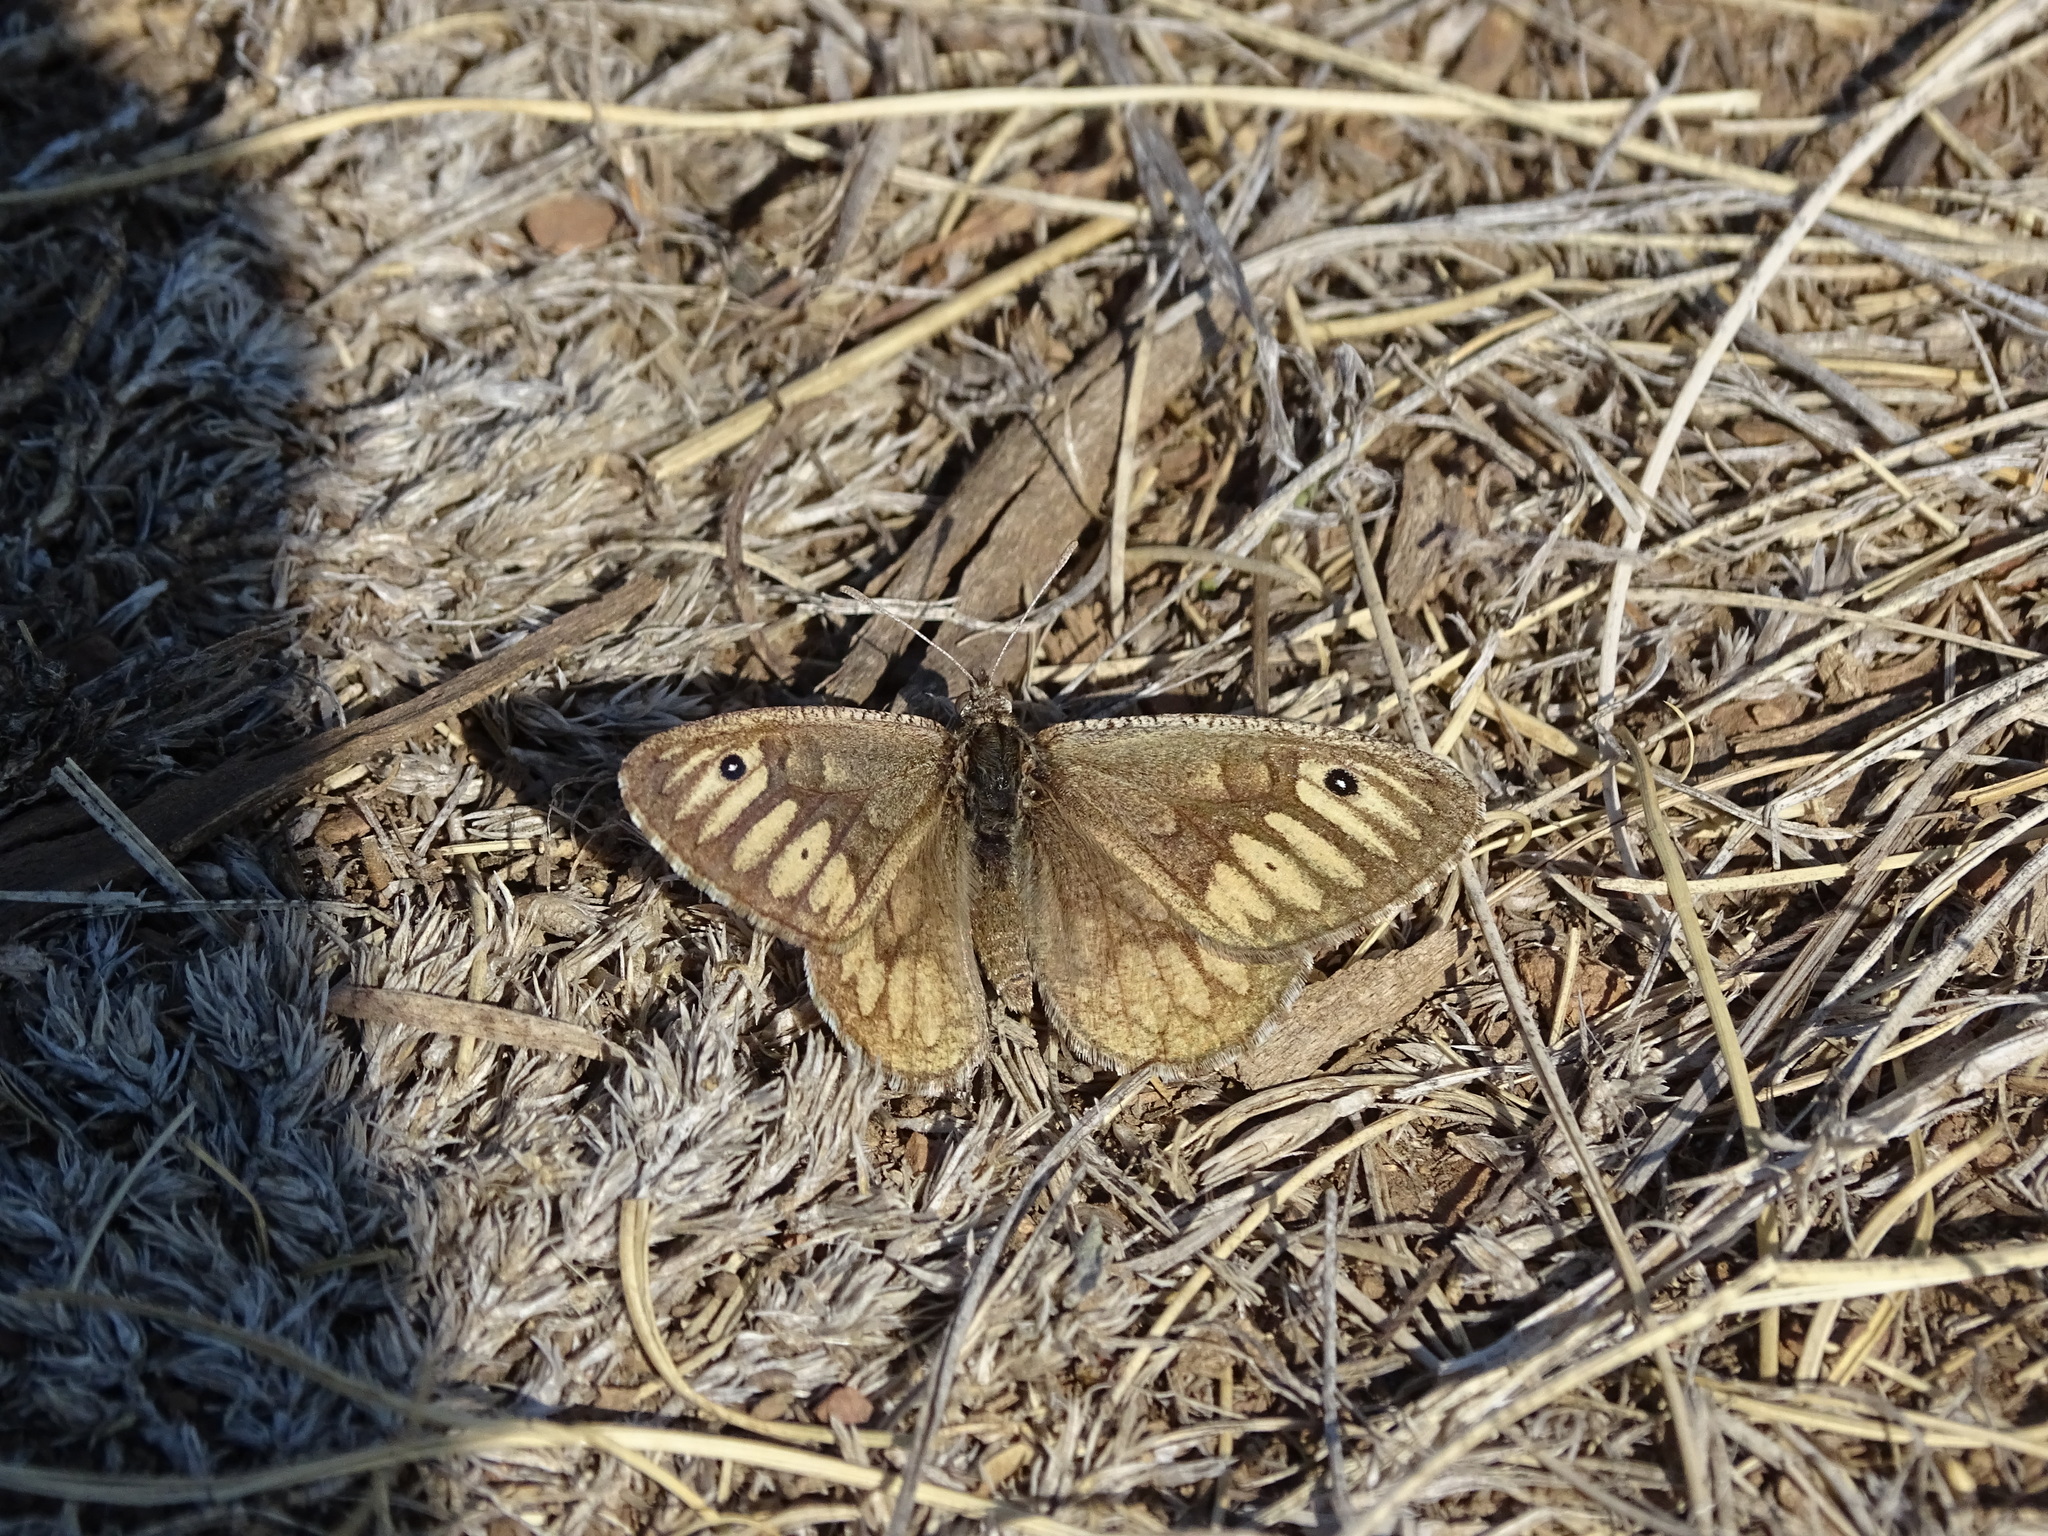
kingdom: Animalia
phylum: Arthropoda
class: Insecta
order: Lepidoptera
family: Nymphalidae
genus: Neominois
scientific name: Neominois ridingsii
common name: Ridings' satyr
